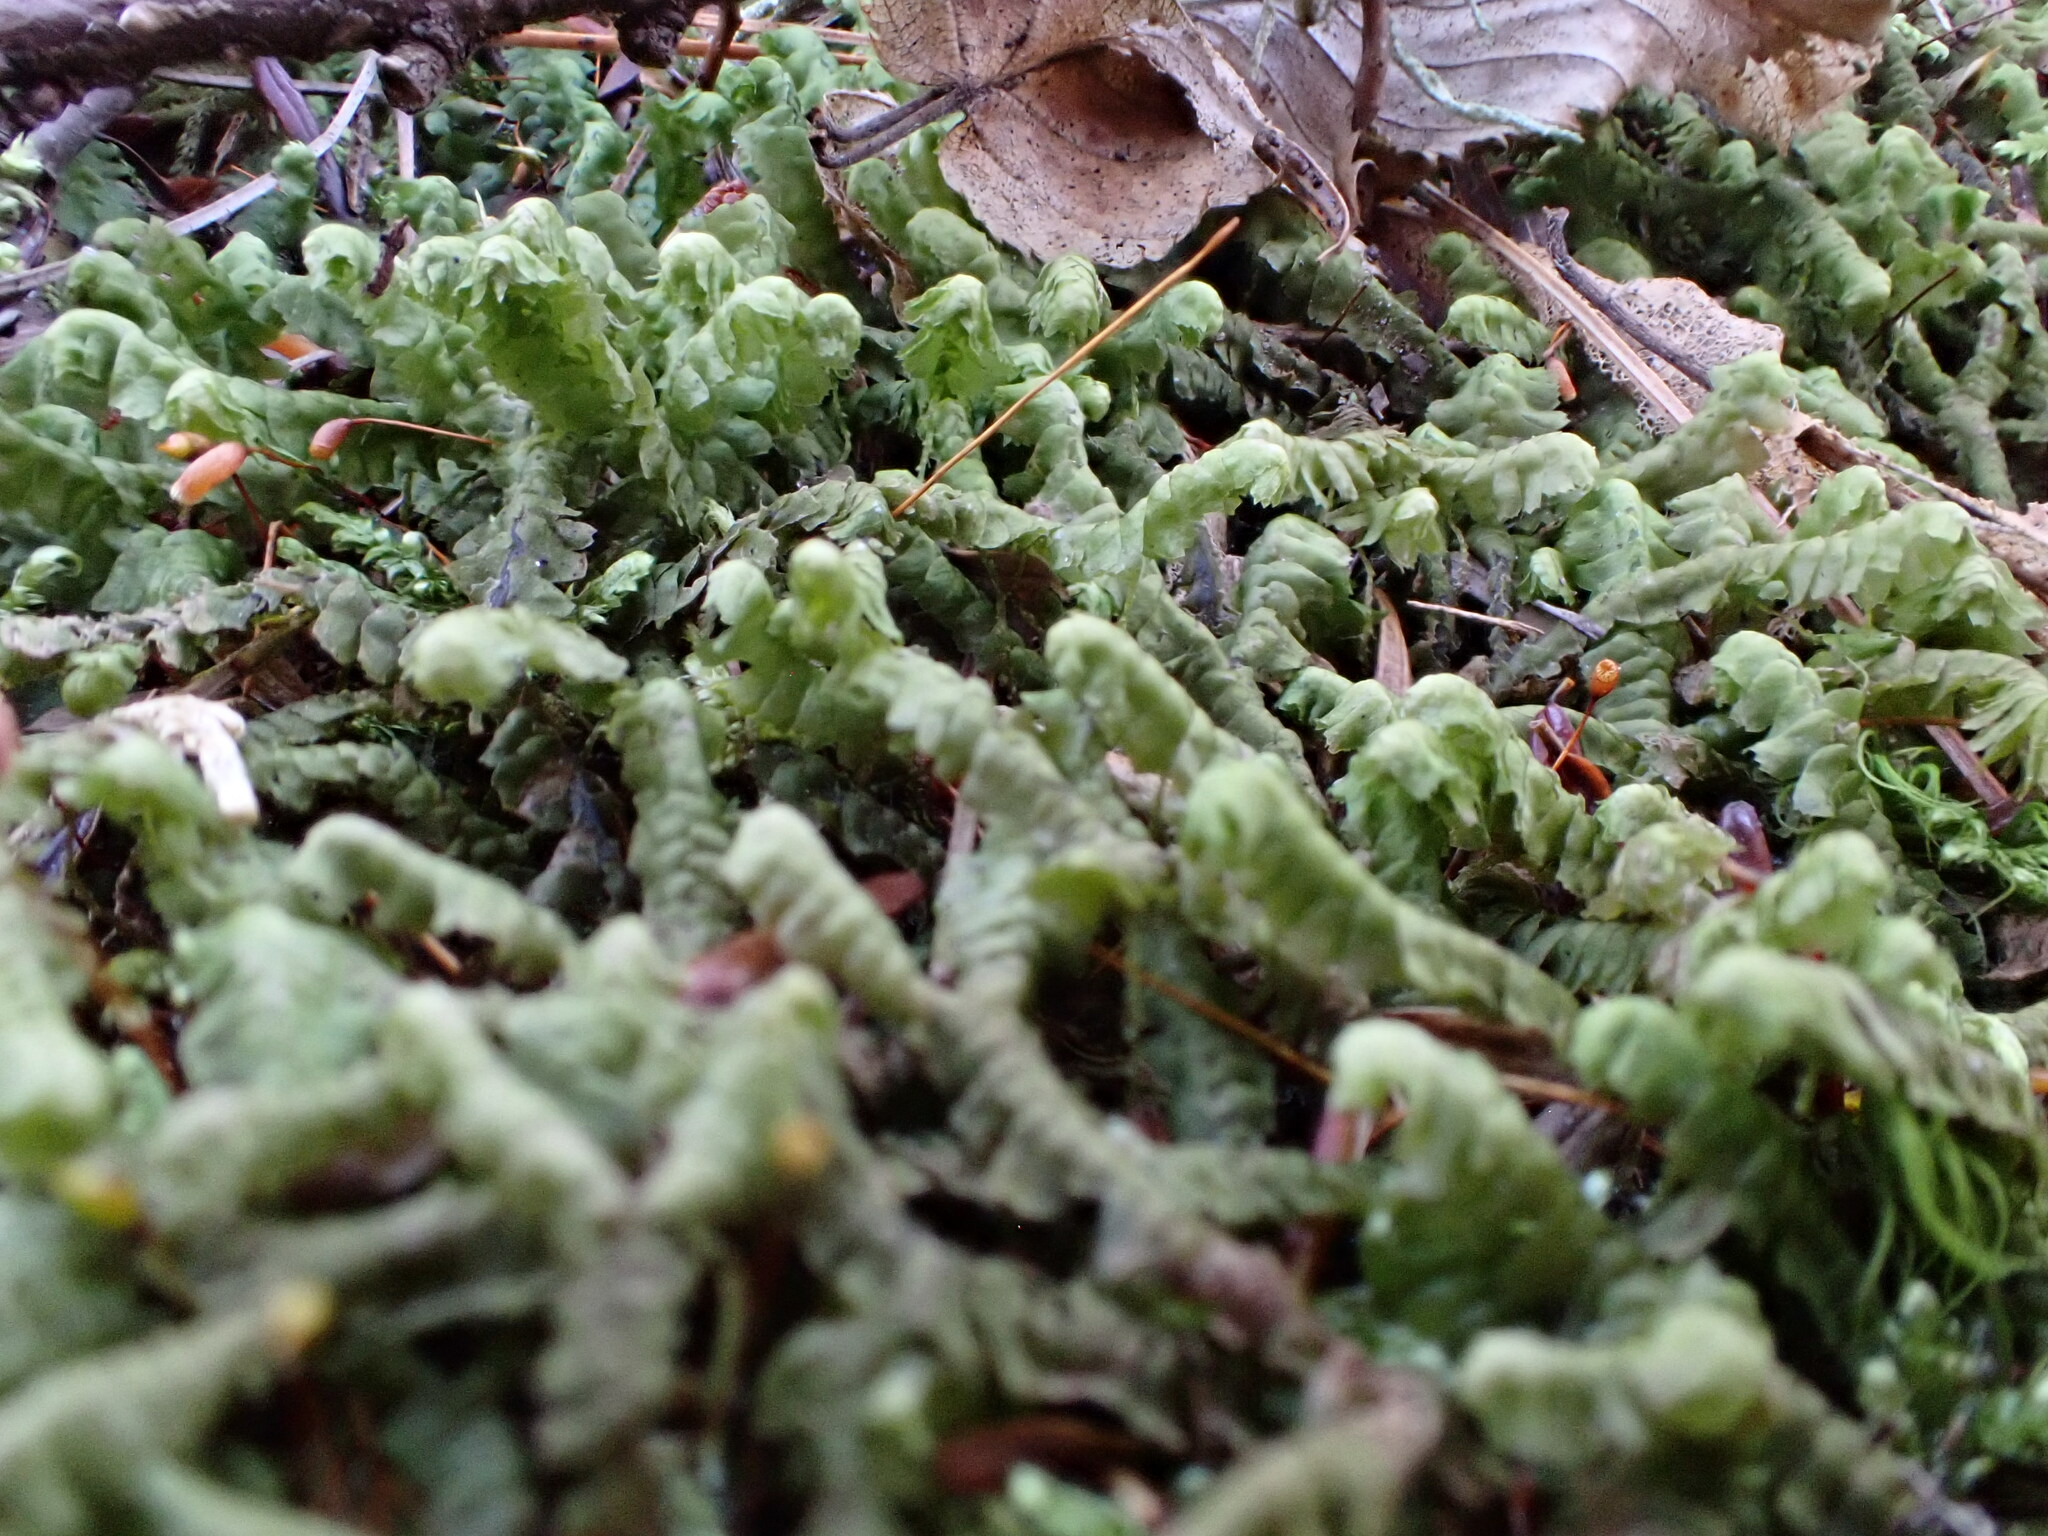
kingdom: Plantae
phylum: Marchantiophyta
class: Jungermanniopsida
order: Jungermanniales
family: Lepidoziaceae
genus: Bazzania
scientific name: Bazzania trilobata
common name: Three-lobed whipwort
